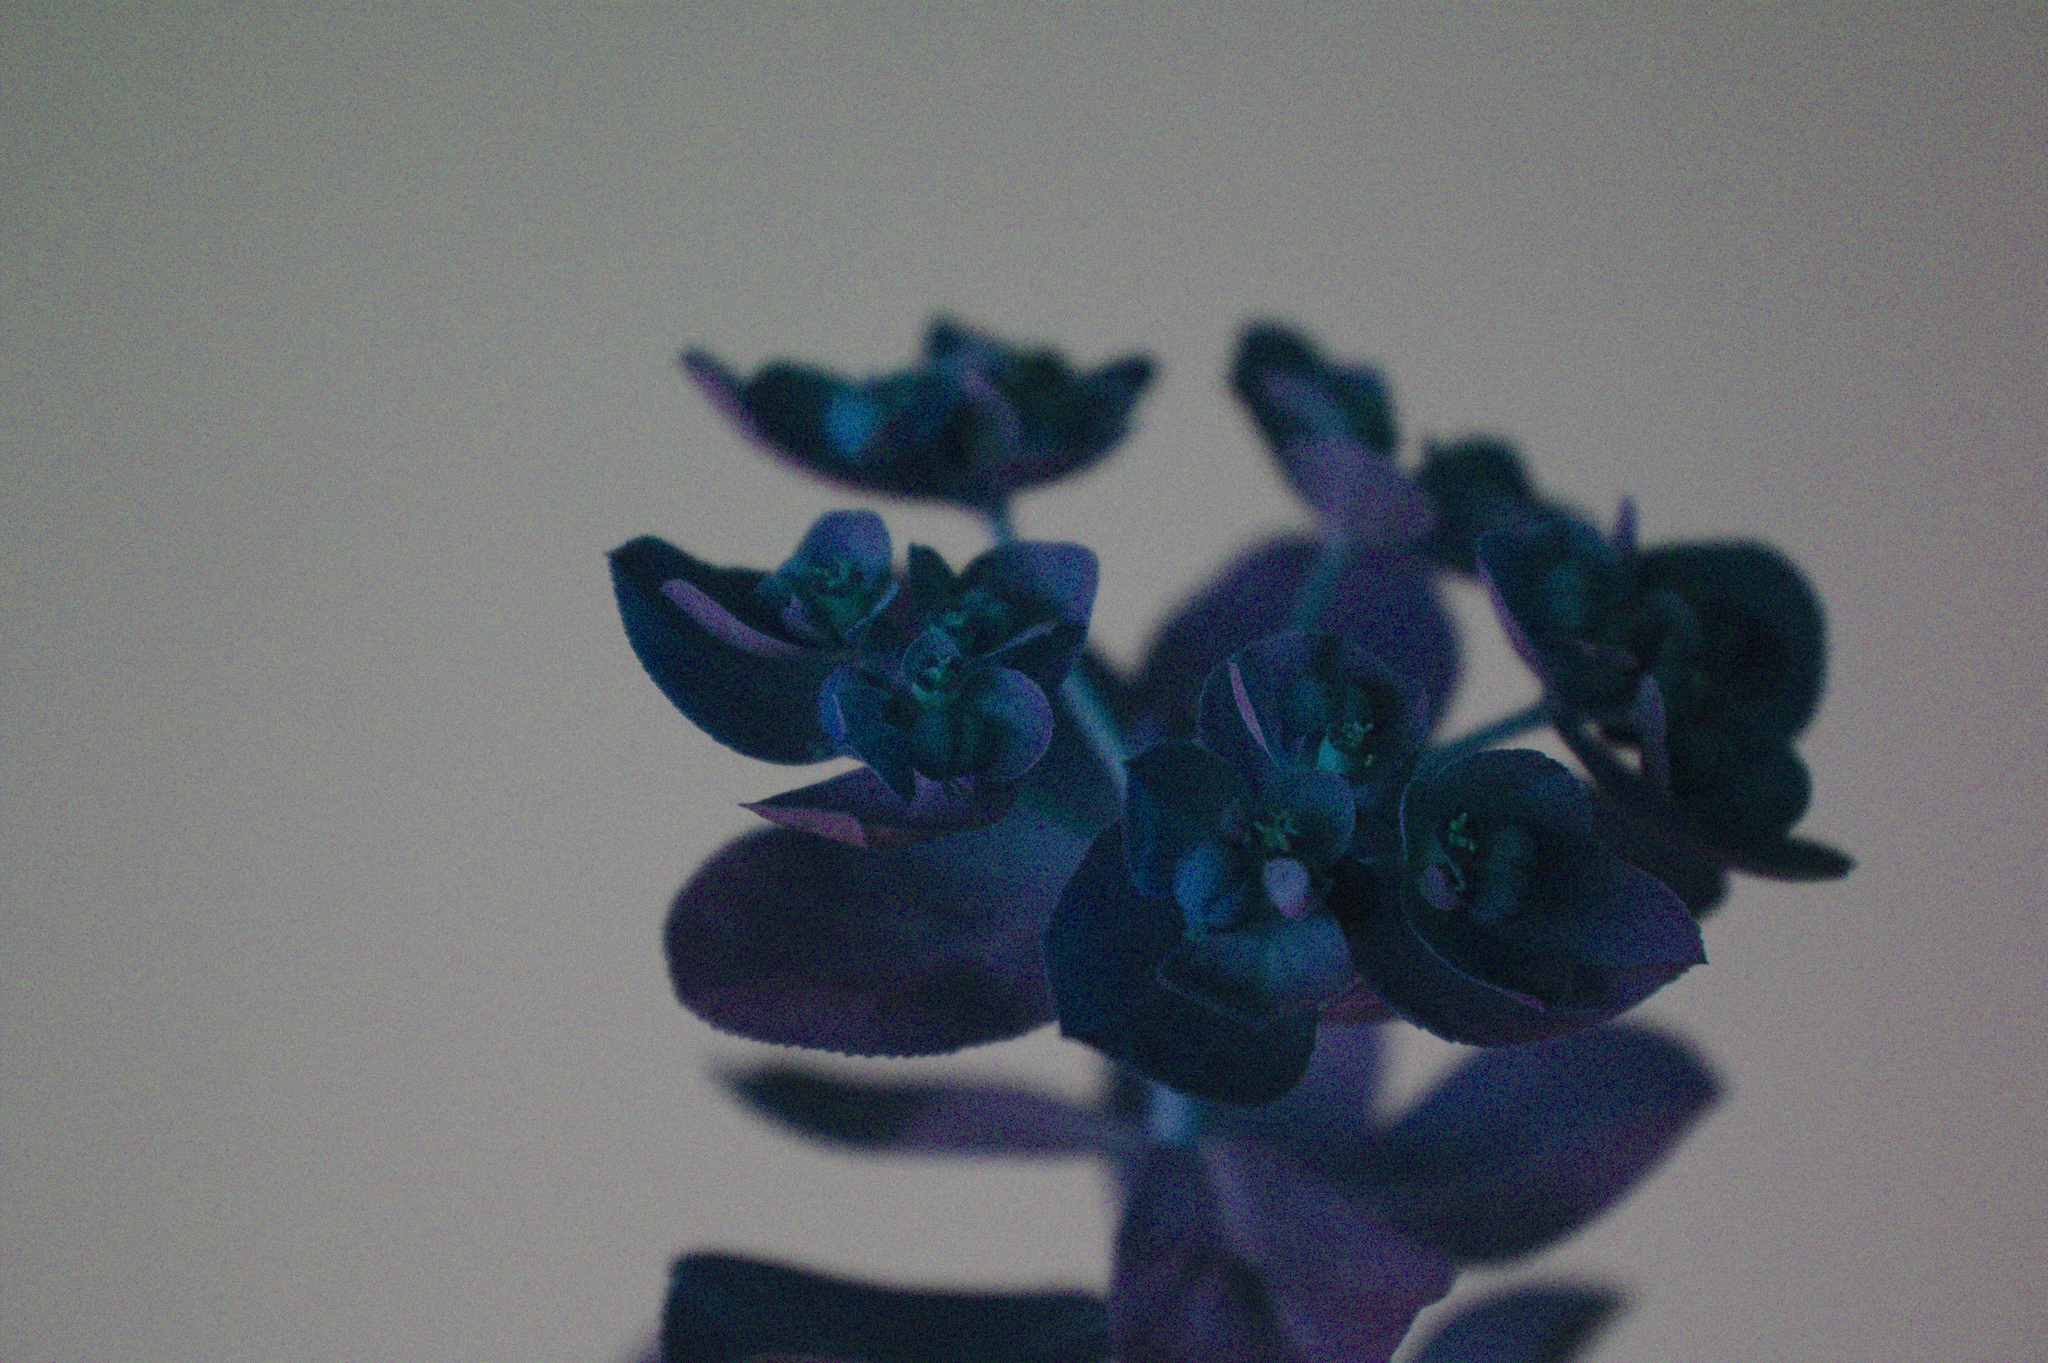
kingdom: Plantae
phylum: Tracheophyta
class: Magnoliopsida
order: Malpighiales
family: Euphorbiaceae
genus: Euphorbia
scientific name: Euphorbia helioscopia
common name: Sun spurge
